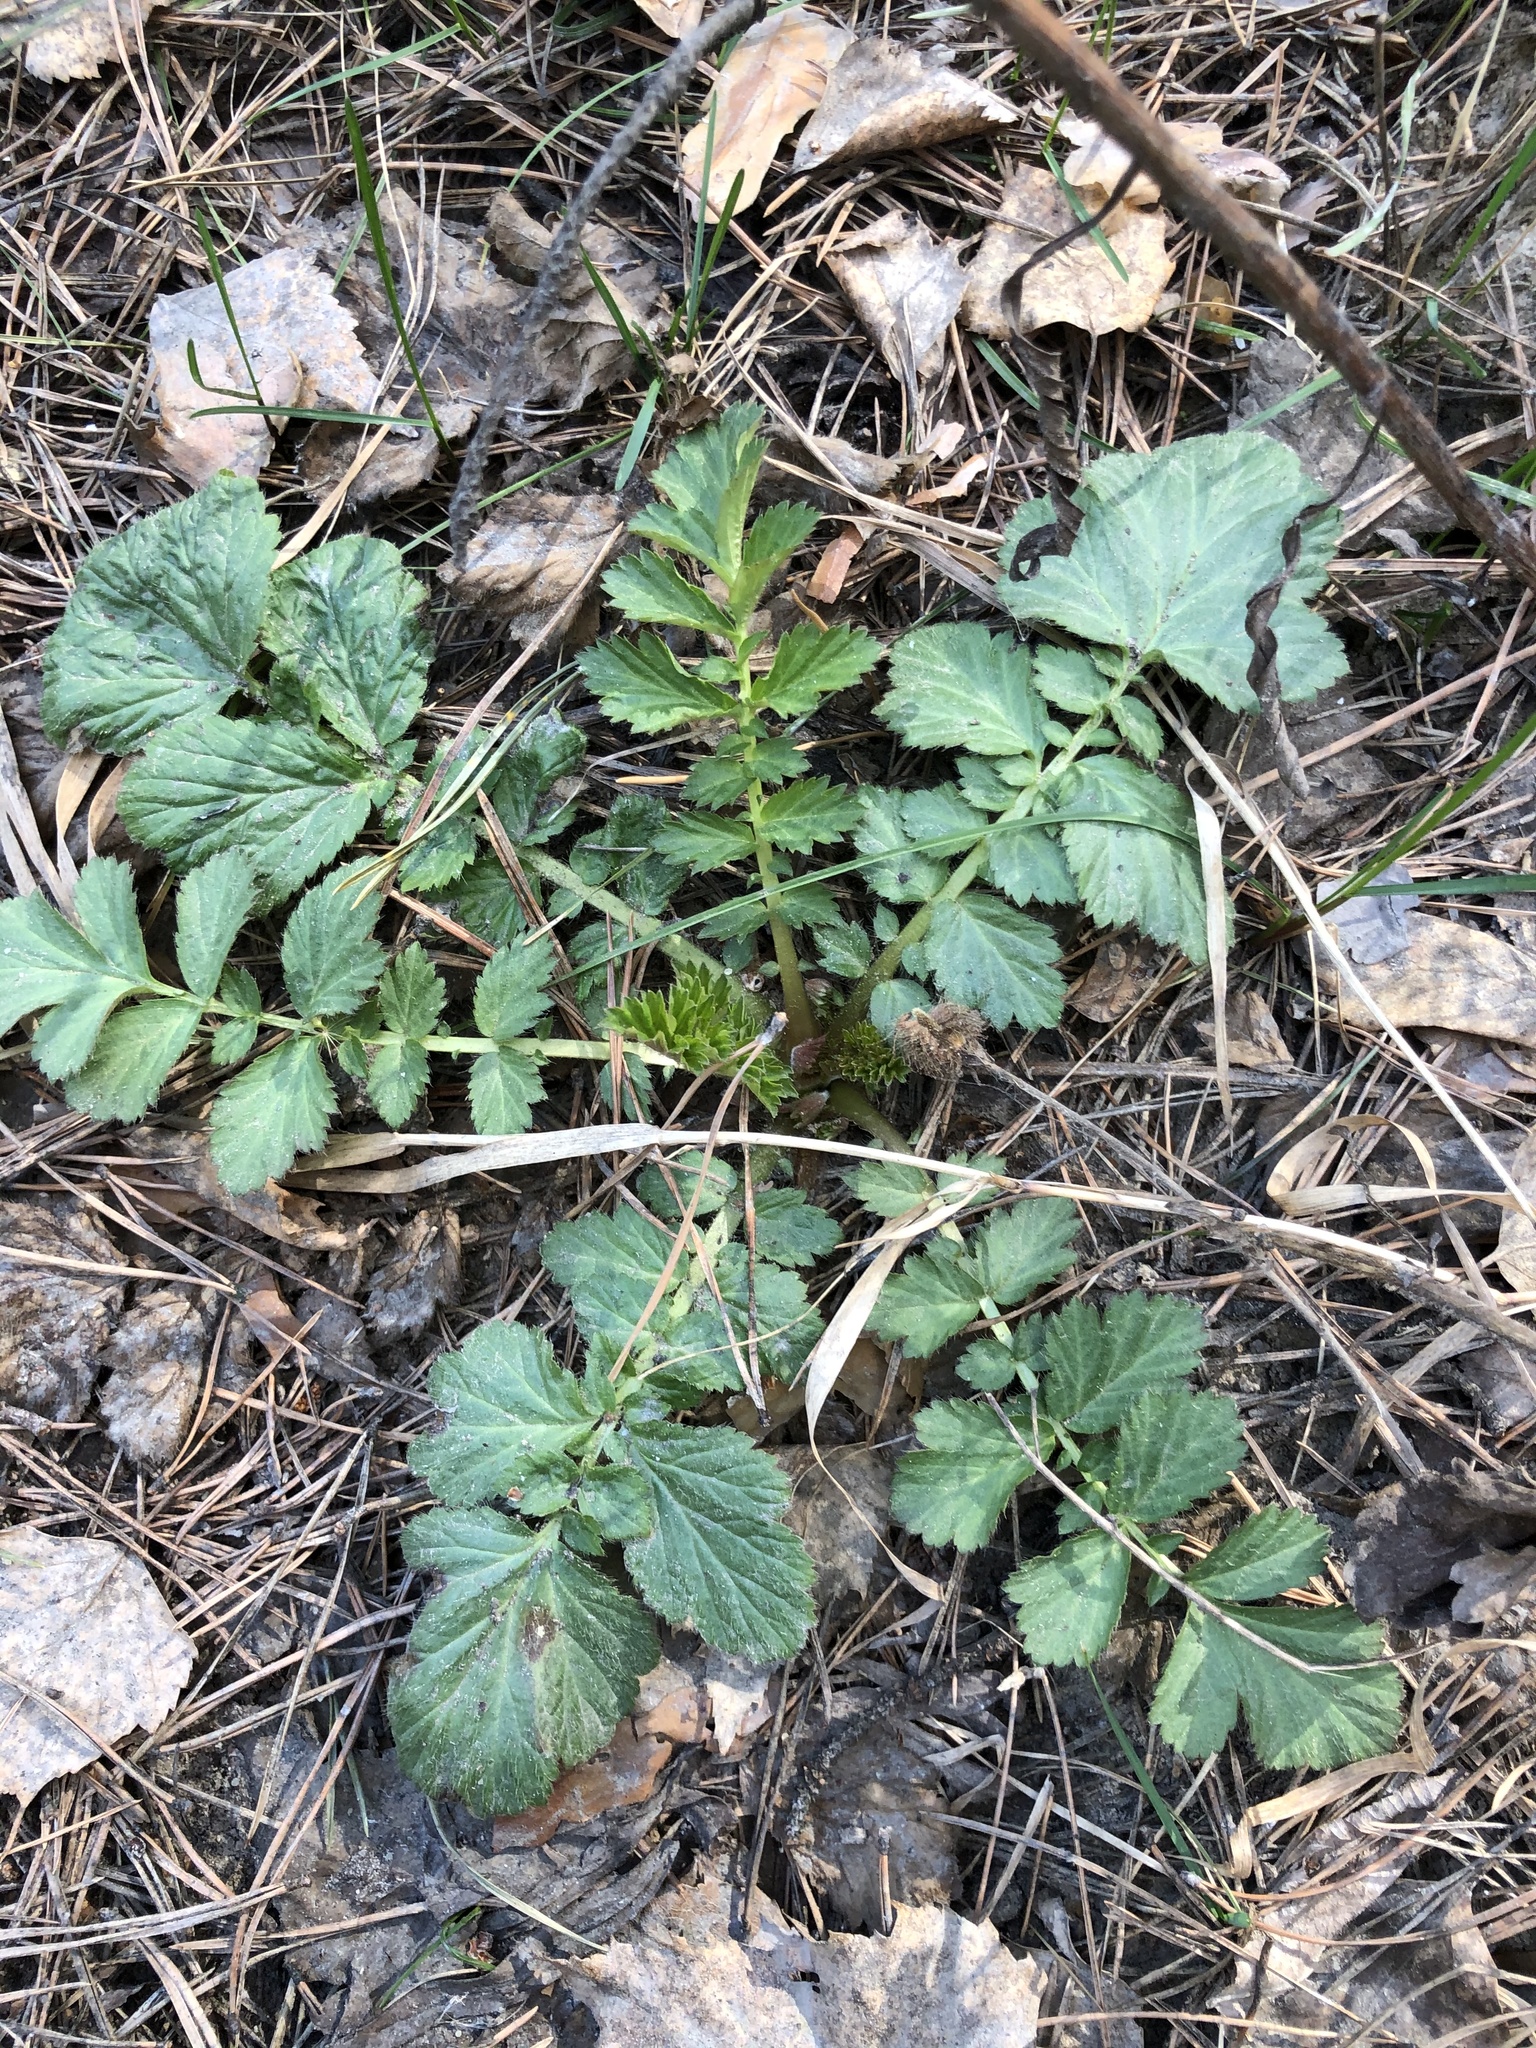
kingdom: Plantae
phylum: Tracheophyta
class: Magnoliopsida
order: Rosales
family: Rosaceae
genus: Geum
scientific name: Geum aleppicum
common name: Yellow avens
